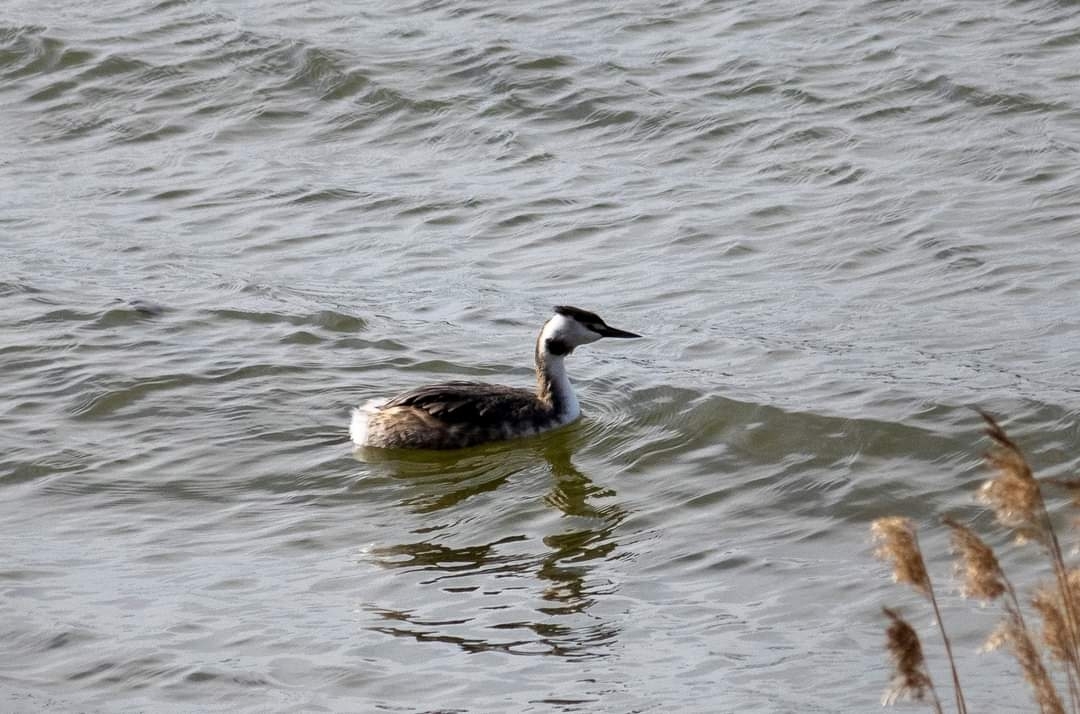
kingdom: Animalia
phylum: Chordata
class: Aves
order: Podicipediformes
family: Podicipedidae
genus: Podiceps
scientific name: Podiceps cristatus
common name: Great crested grebe
